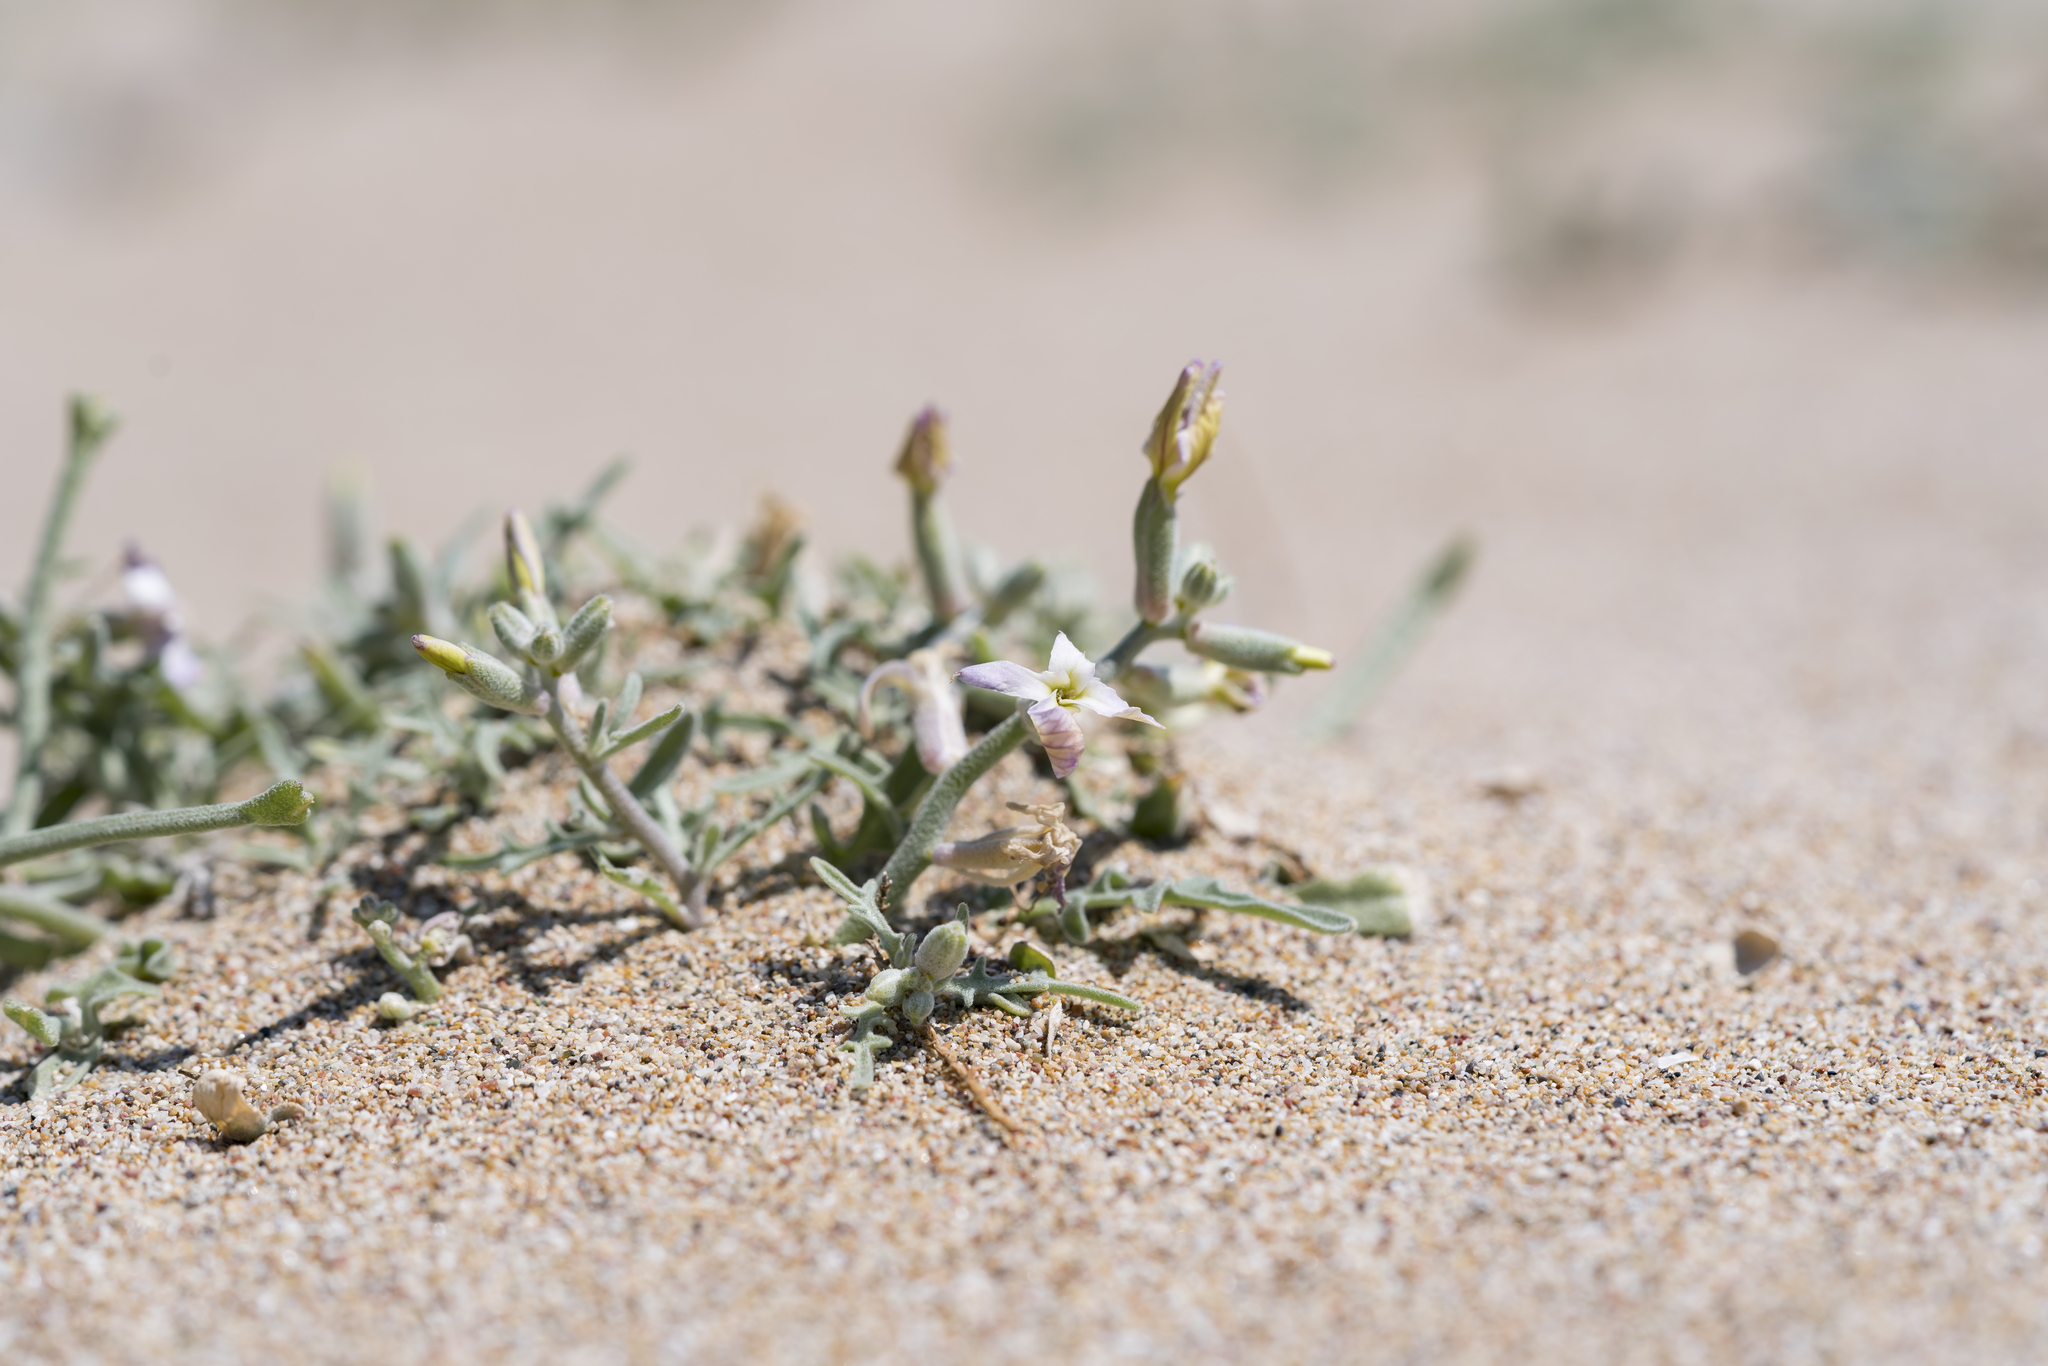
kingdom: Plantae
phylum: Tracheophyta
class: Magnoliopsida
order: Brassicales
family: Brassicaceae
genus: Matthiola
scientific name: Matthiola longipetala
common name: Night-scented stock
